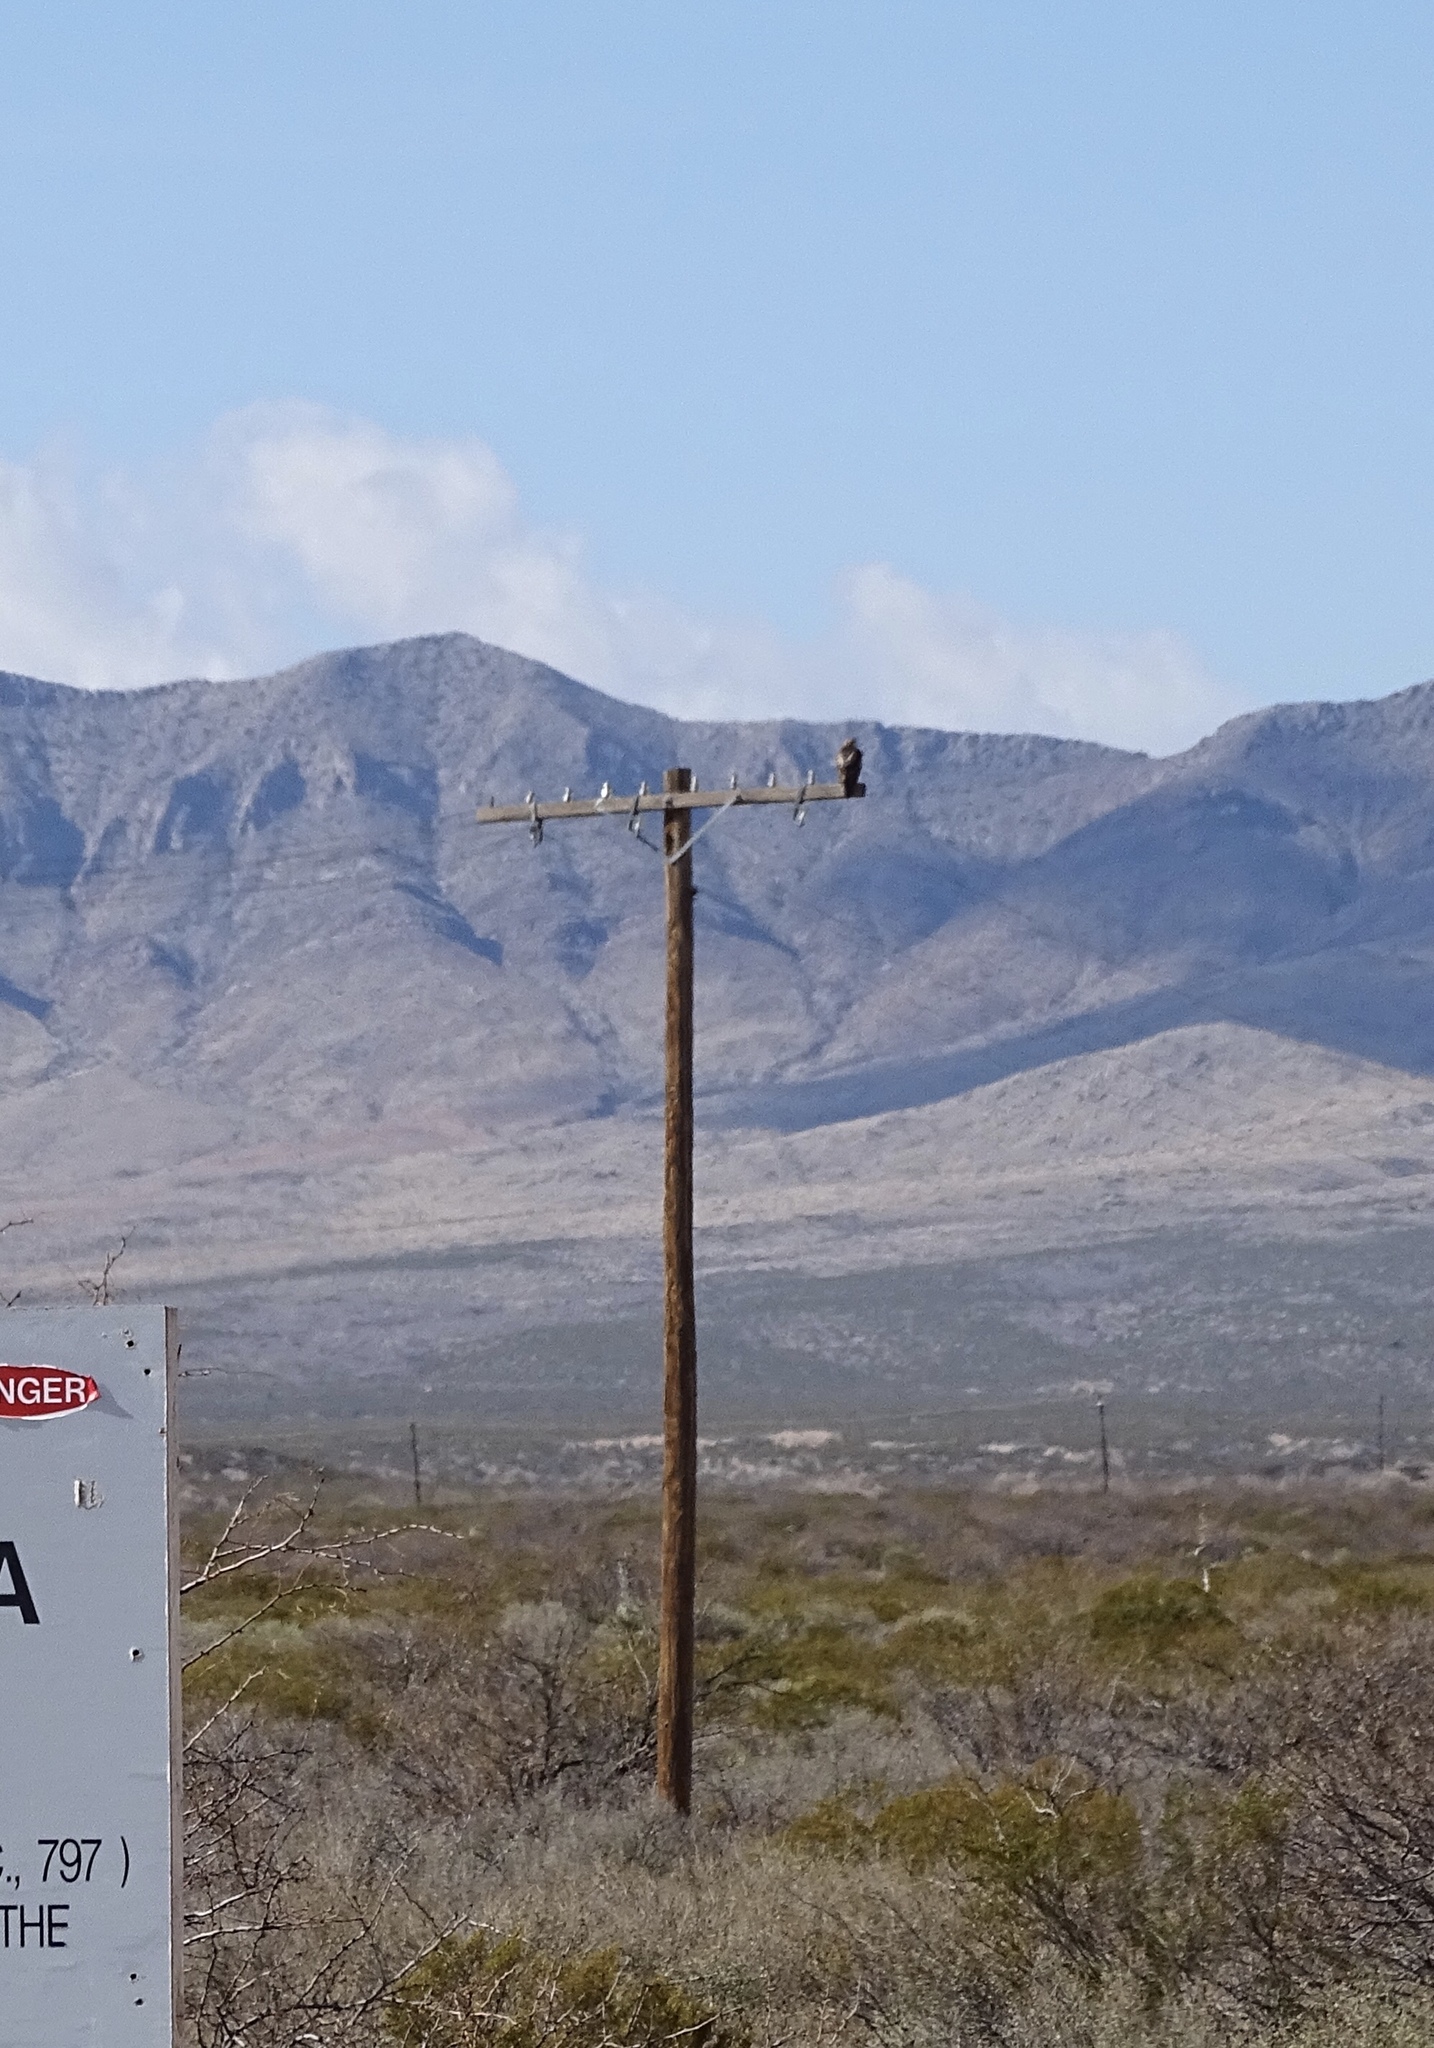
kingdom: Animalia
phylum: Chordata
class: Aves
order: Accipitriformes
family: Accipitridae
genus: Buteo
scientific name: Buteo jamaicensis
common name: Red-tailed hawk
